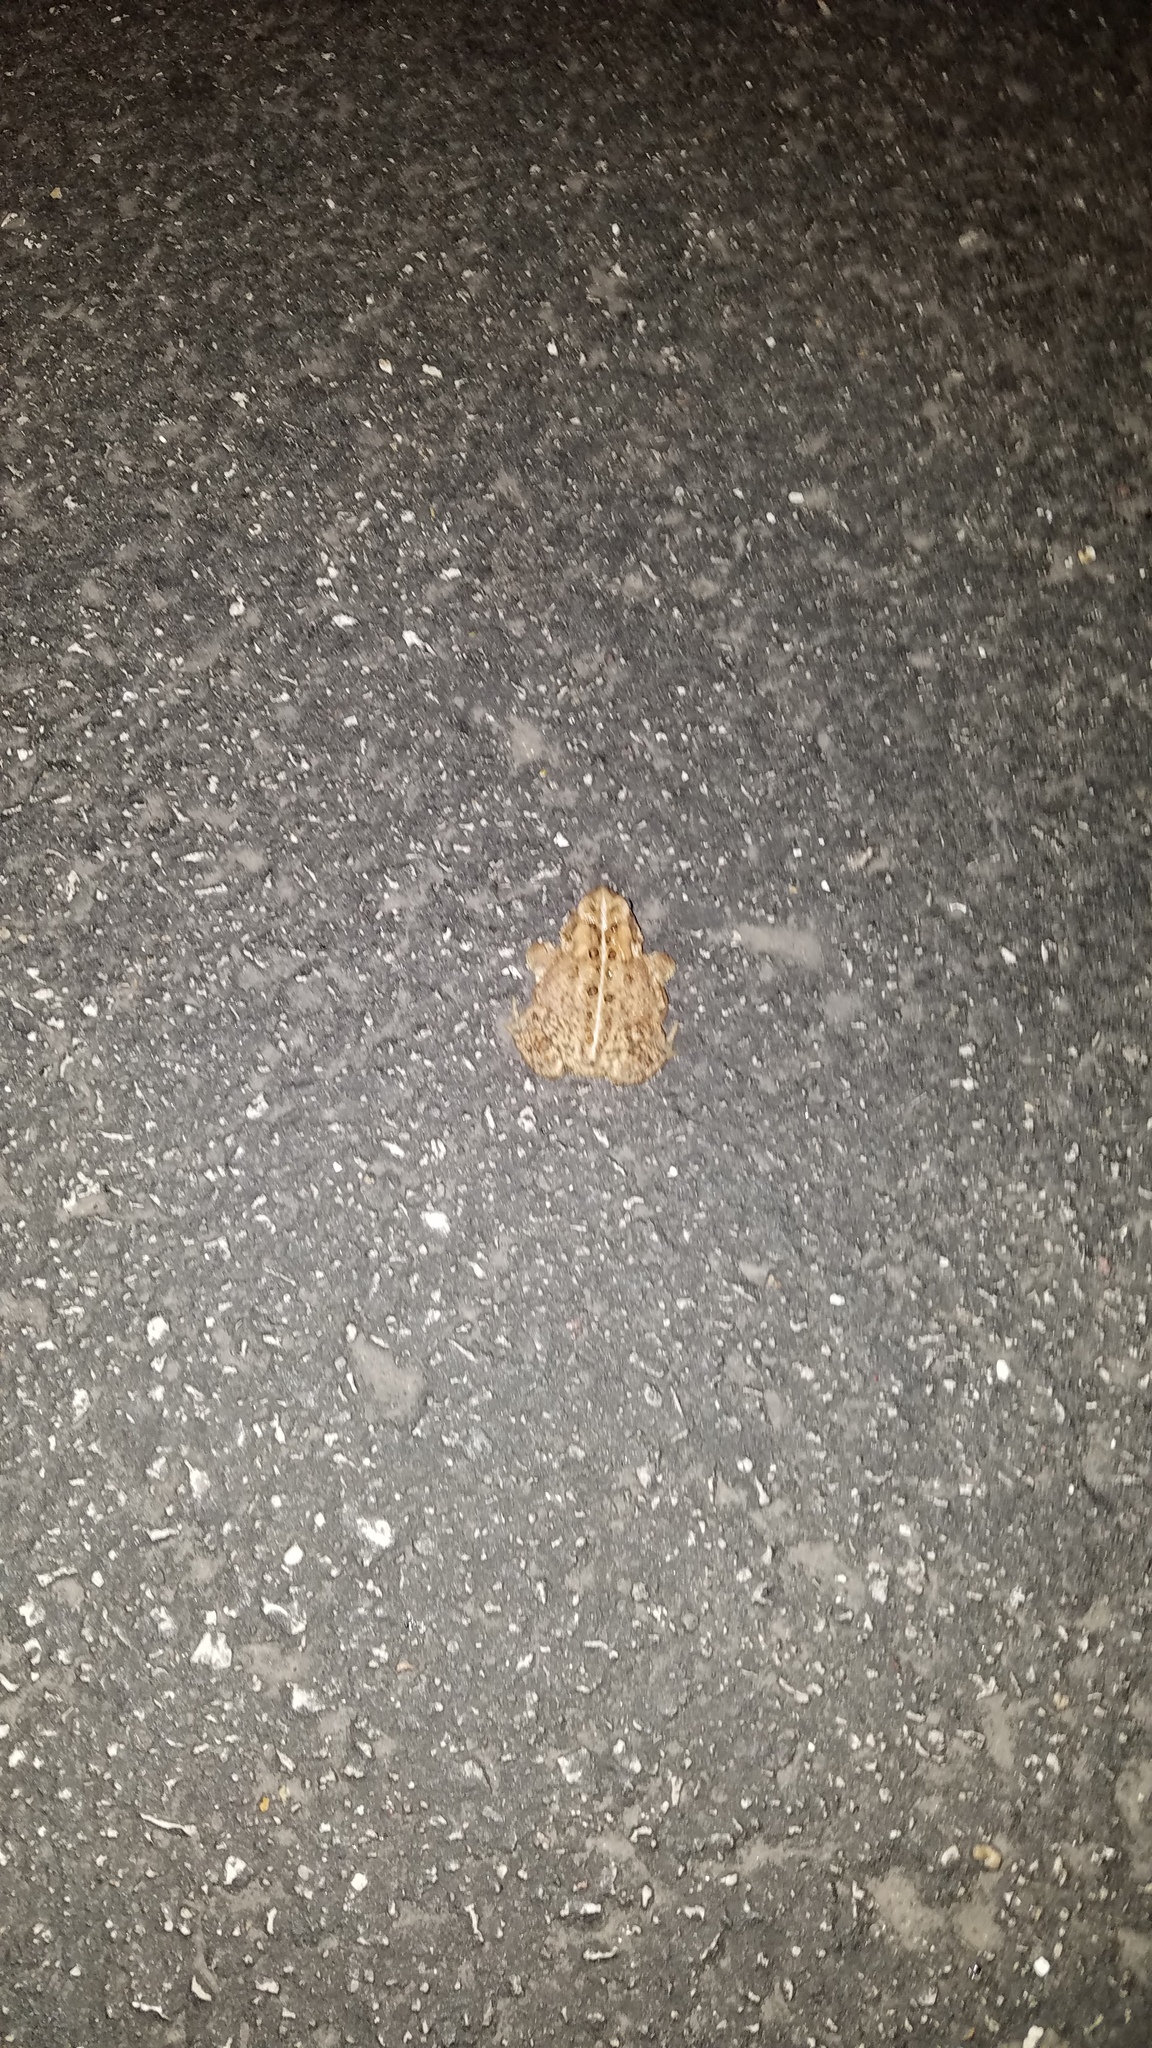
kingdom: Animalia
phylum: Chordata
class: Amphibia
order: Anura
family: Bufonidae
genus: Anaxyrus
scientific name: Anaxyrus americanus
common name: American toad
